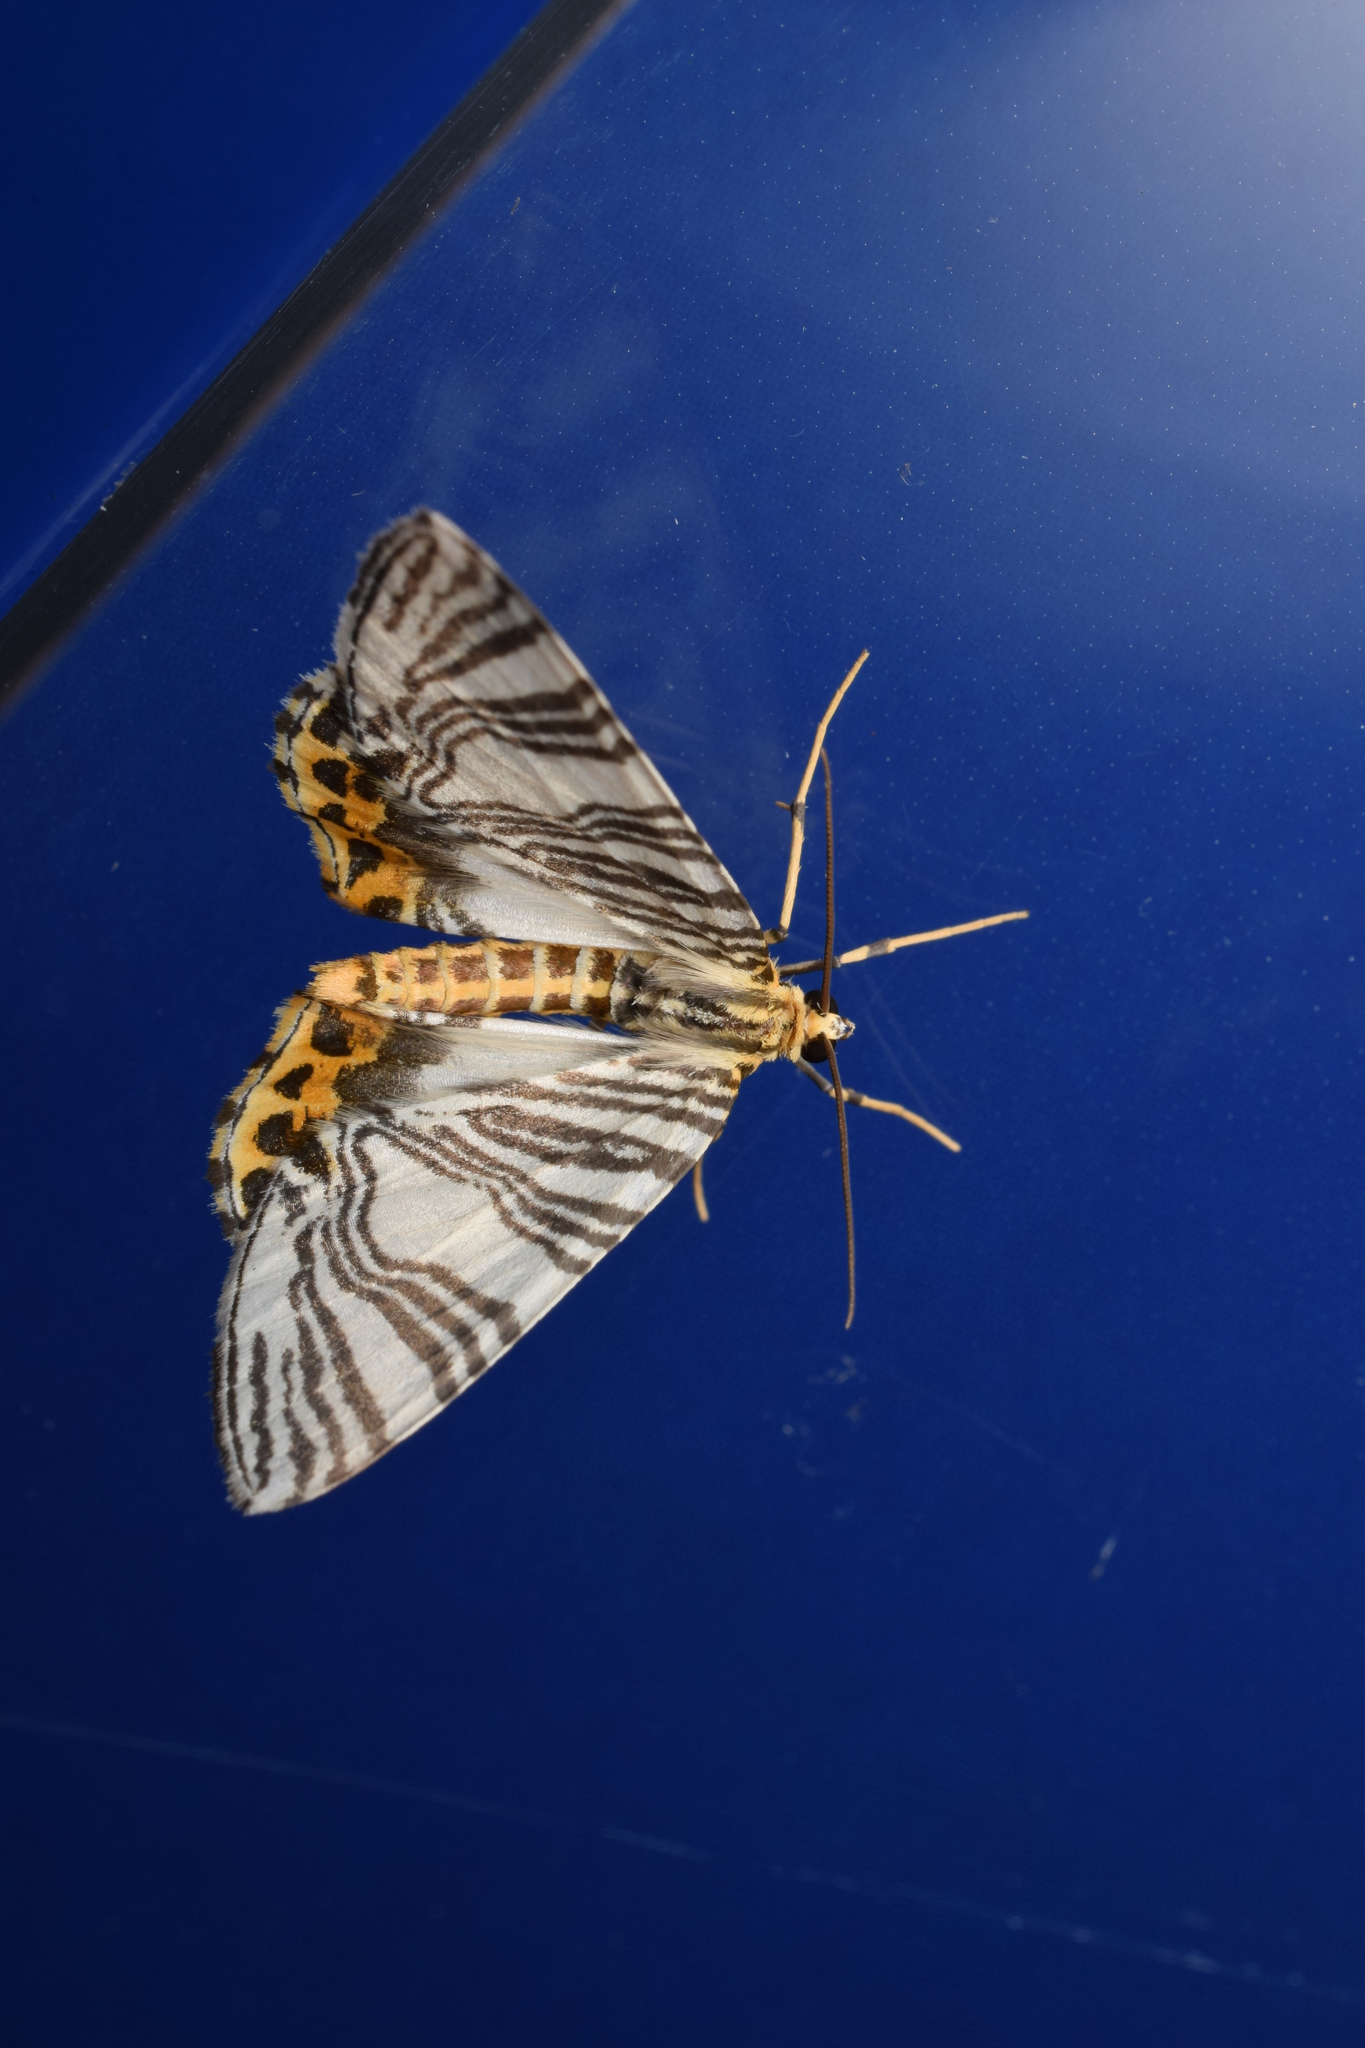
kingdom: Animalia
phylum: Arthropoda
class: Insecta
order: Lepidoptera
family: Geometridae
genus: Callabraxas
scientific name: Callabraxas compositata
